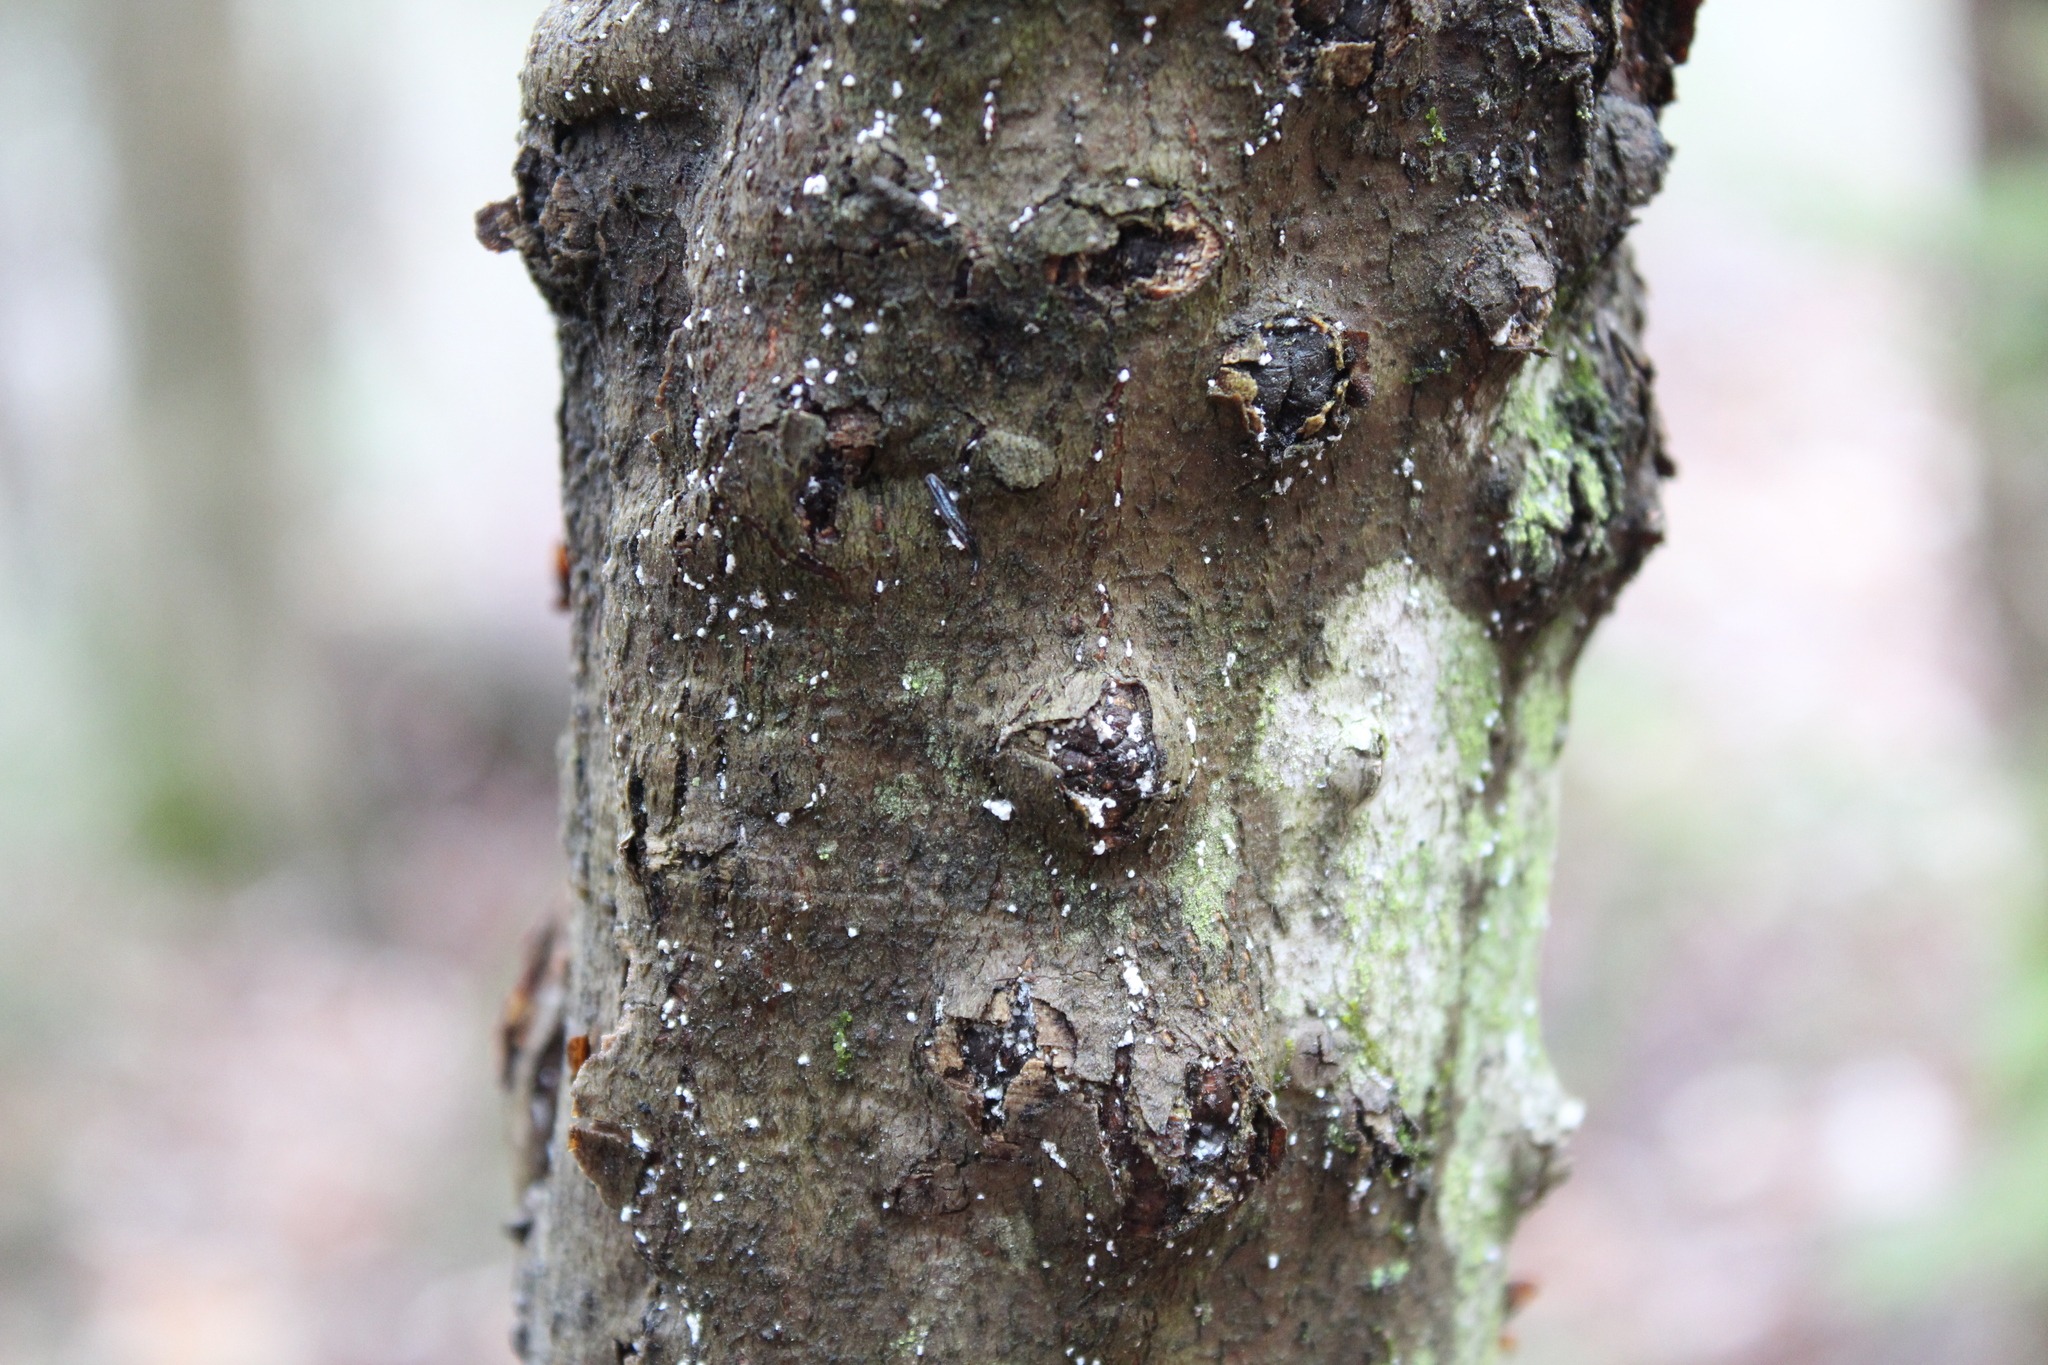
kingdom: Plantae
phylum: Tracheophyta
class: Magnoliopsida
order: Fagales
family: Fagaceae
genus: Fagus
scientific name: Fagus grandifolia
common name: American beech
